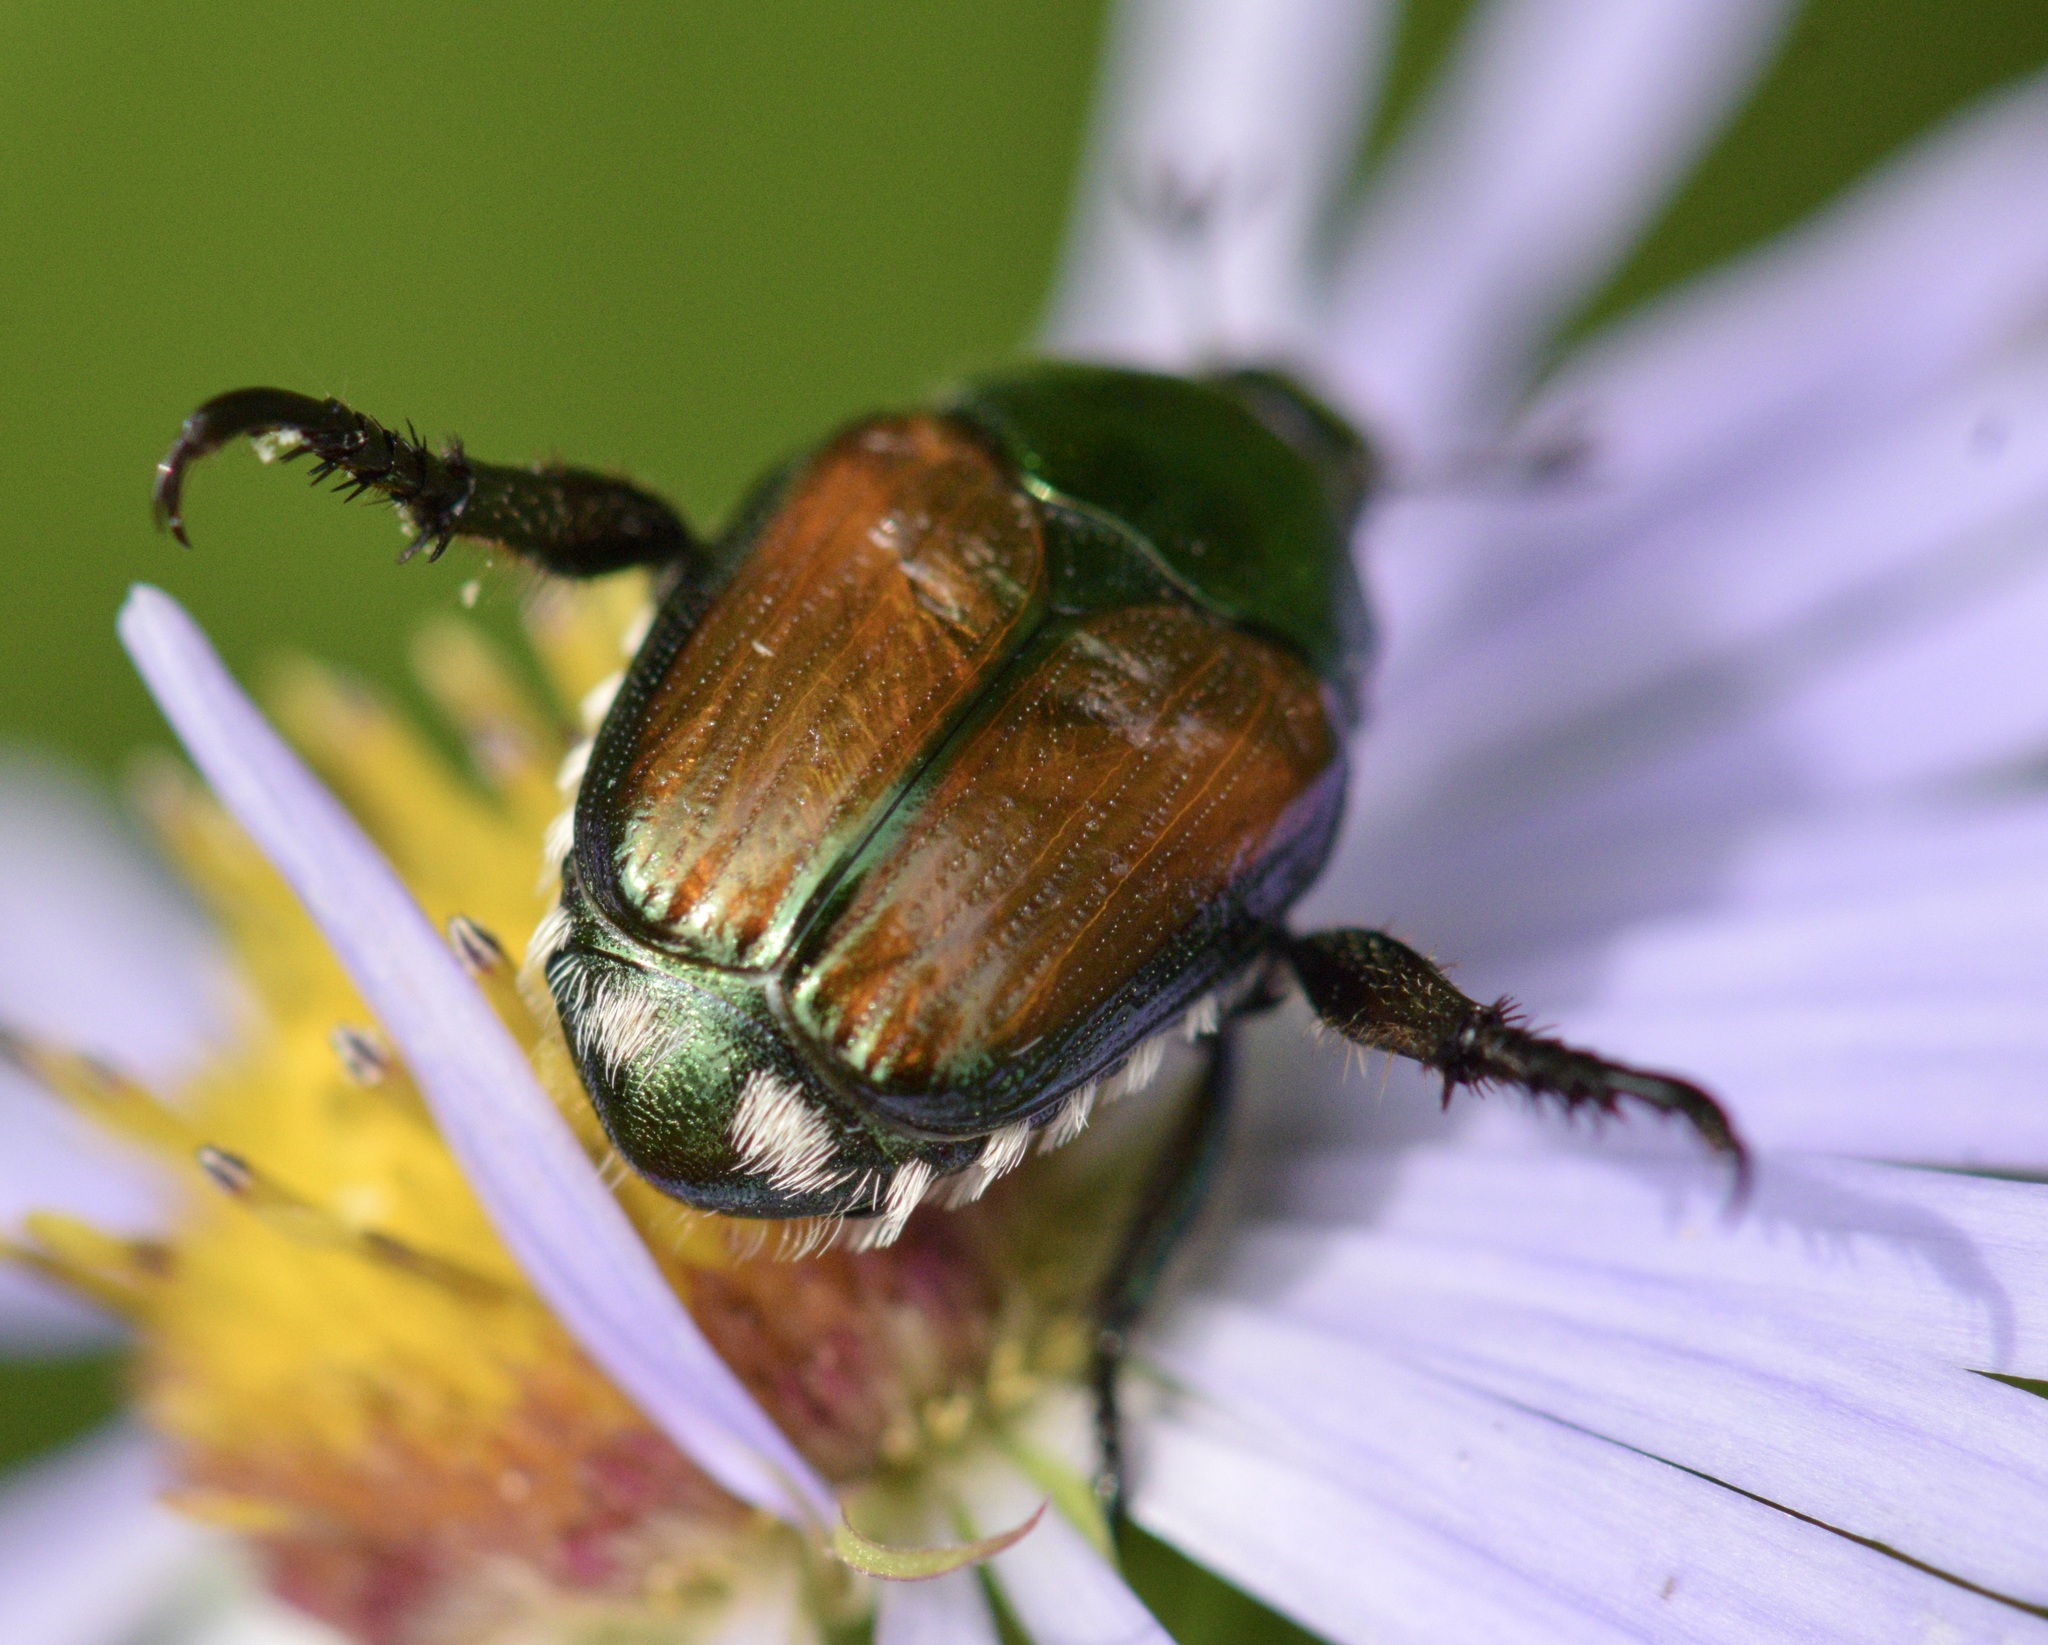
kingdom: Animalia
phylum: Arthropoda
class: Insecta
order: Coleoptera
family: Scarabaeidae
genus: Popillia
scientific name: Popillia japonica
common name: Japanese beetle
